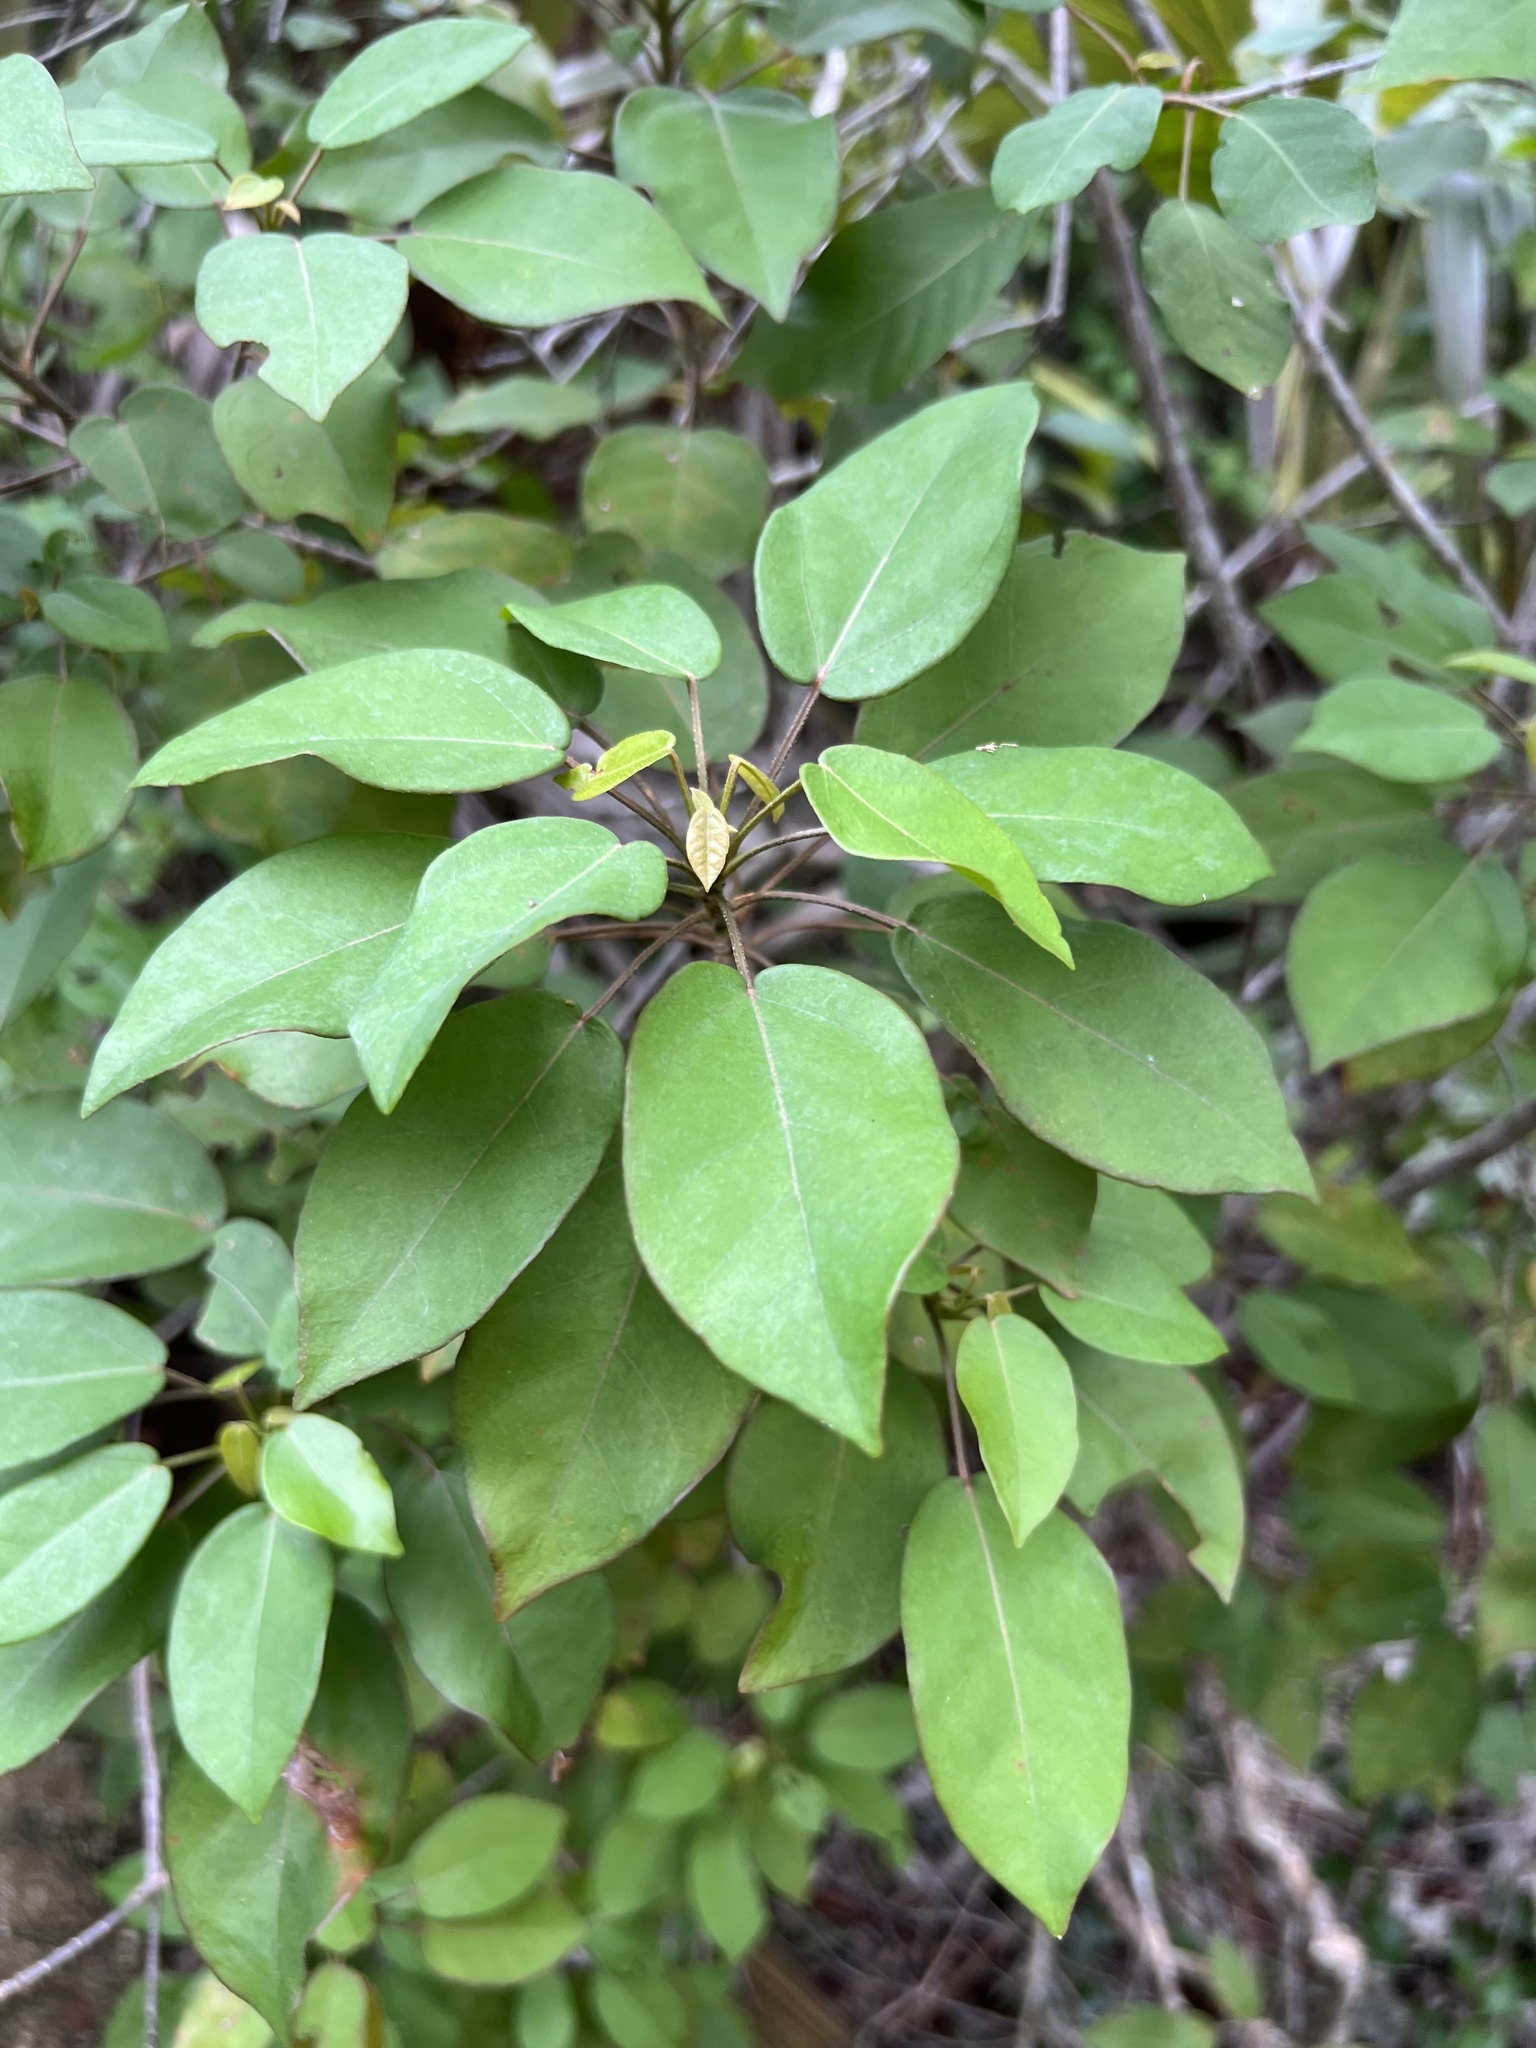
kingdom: Plantae
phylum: Tracheophyta
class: Magnoliopsida
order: Malpighiales
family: Euphorbiaceae
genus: Croton
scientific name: Croton glabellus
